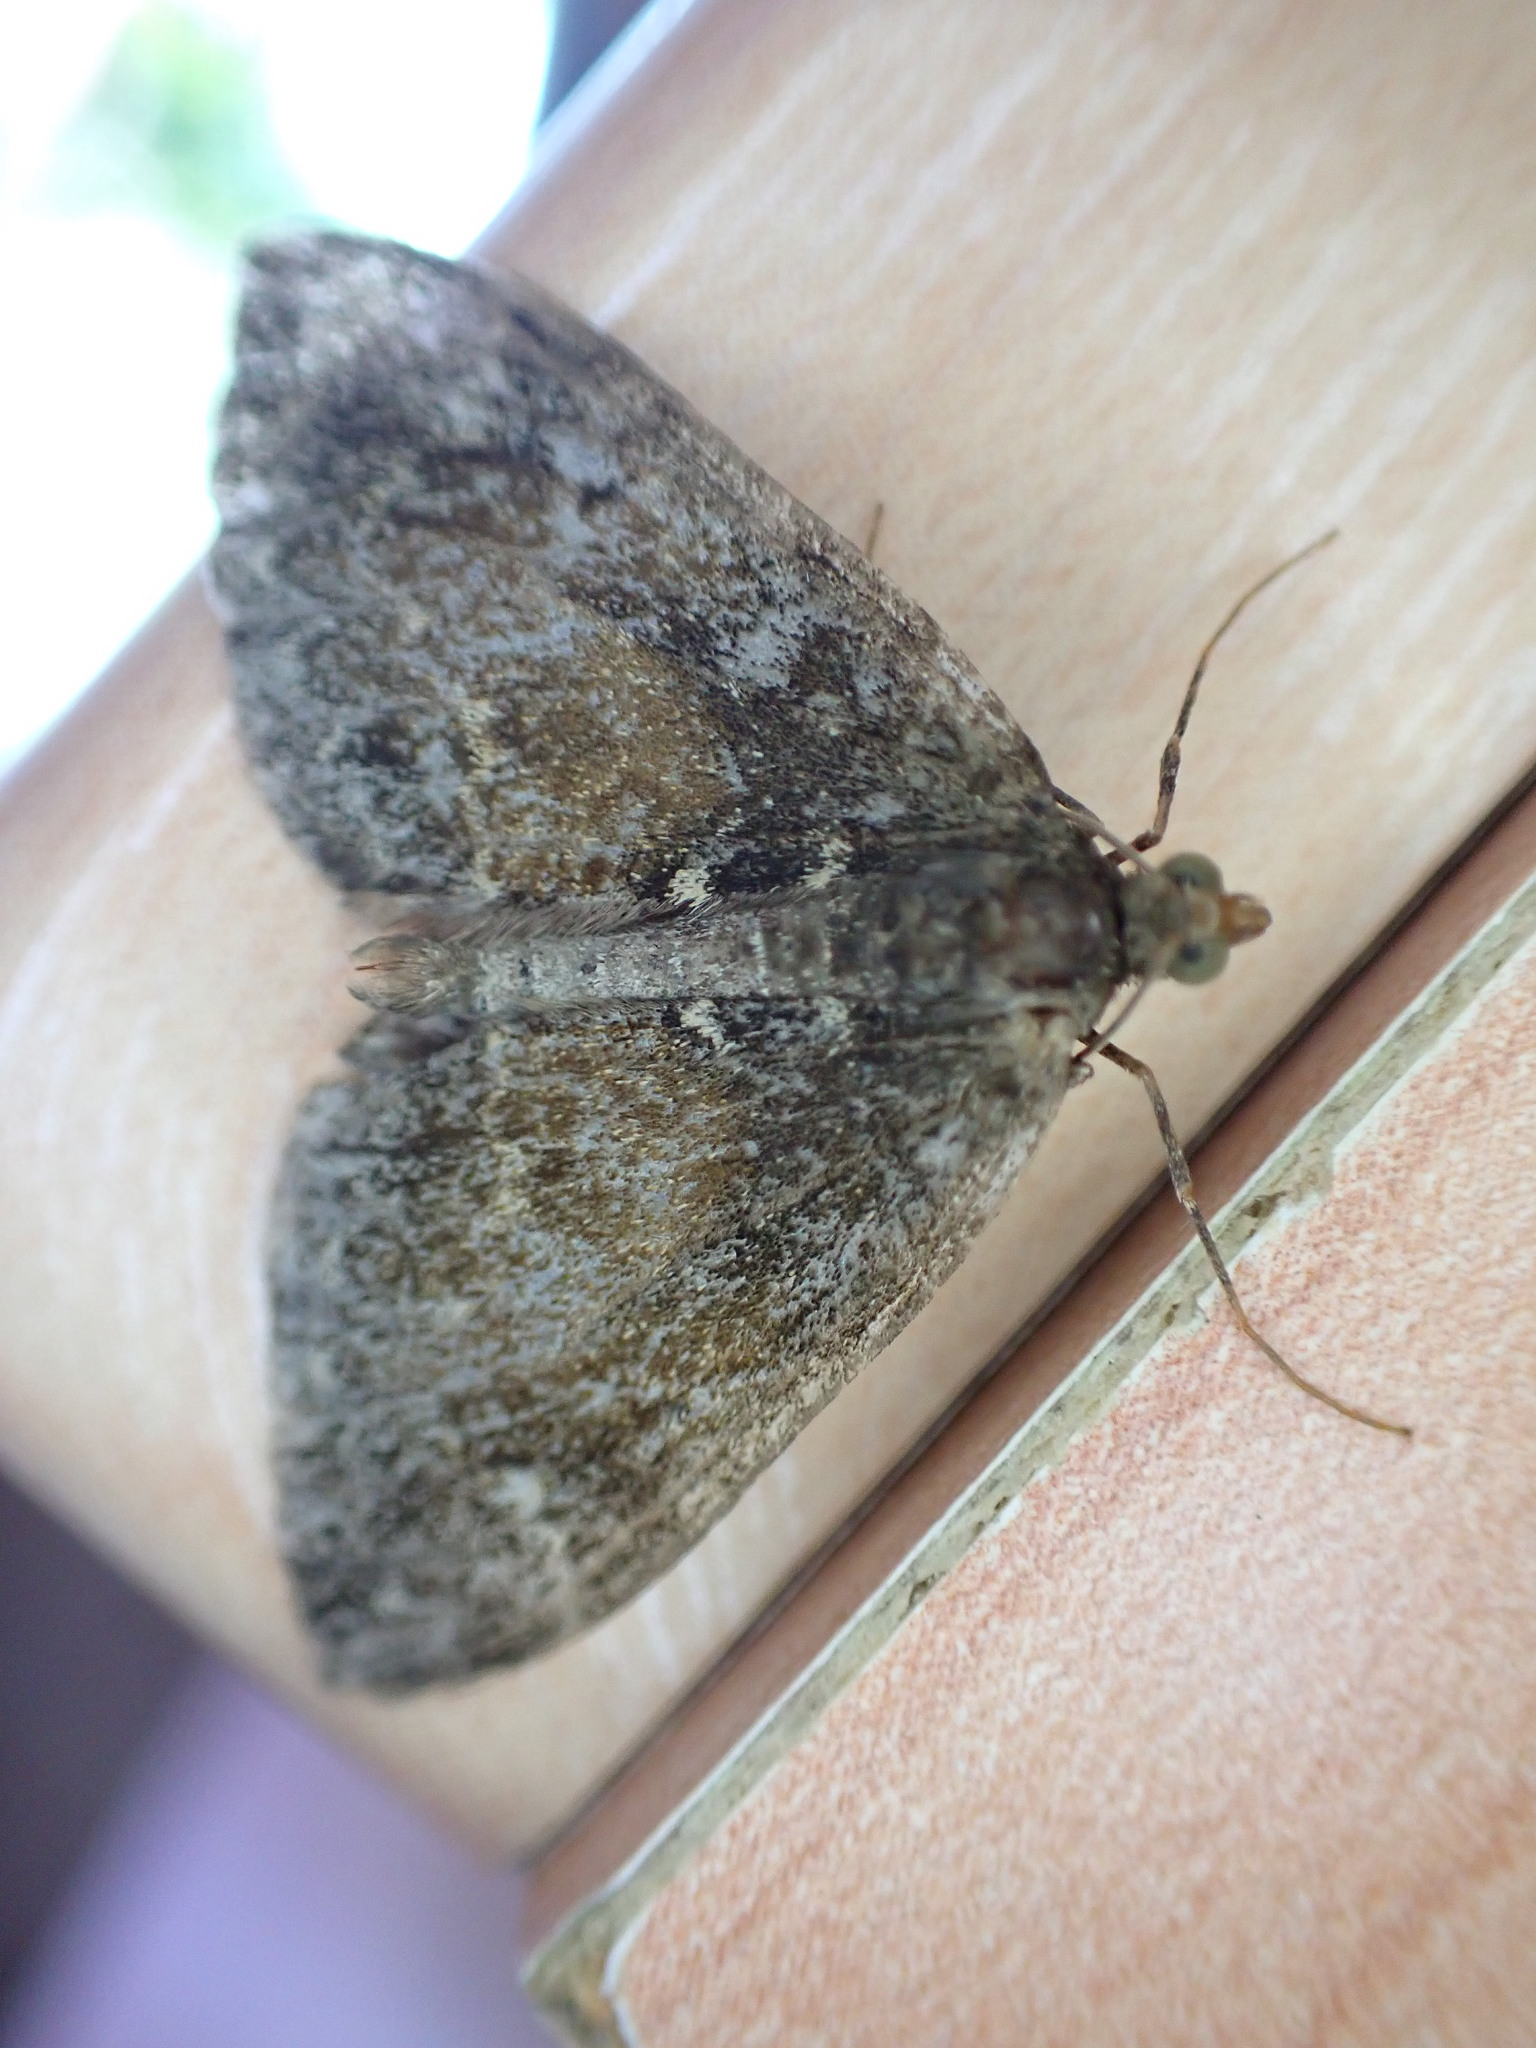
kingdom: Animalia
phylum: Arthropoda
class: Insecta
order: Lepidoptera
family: Geometridae
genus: Dysstroma
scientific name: Dysstroma truncata
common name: Common marbled carpet
